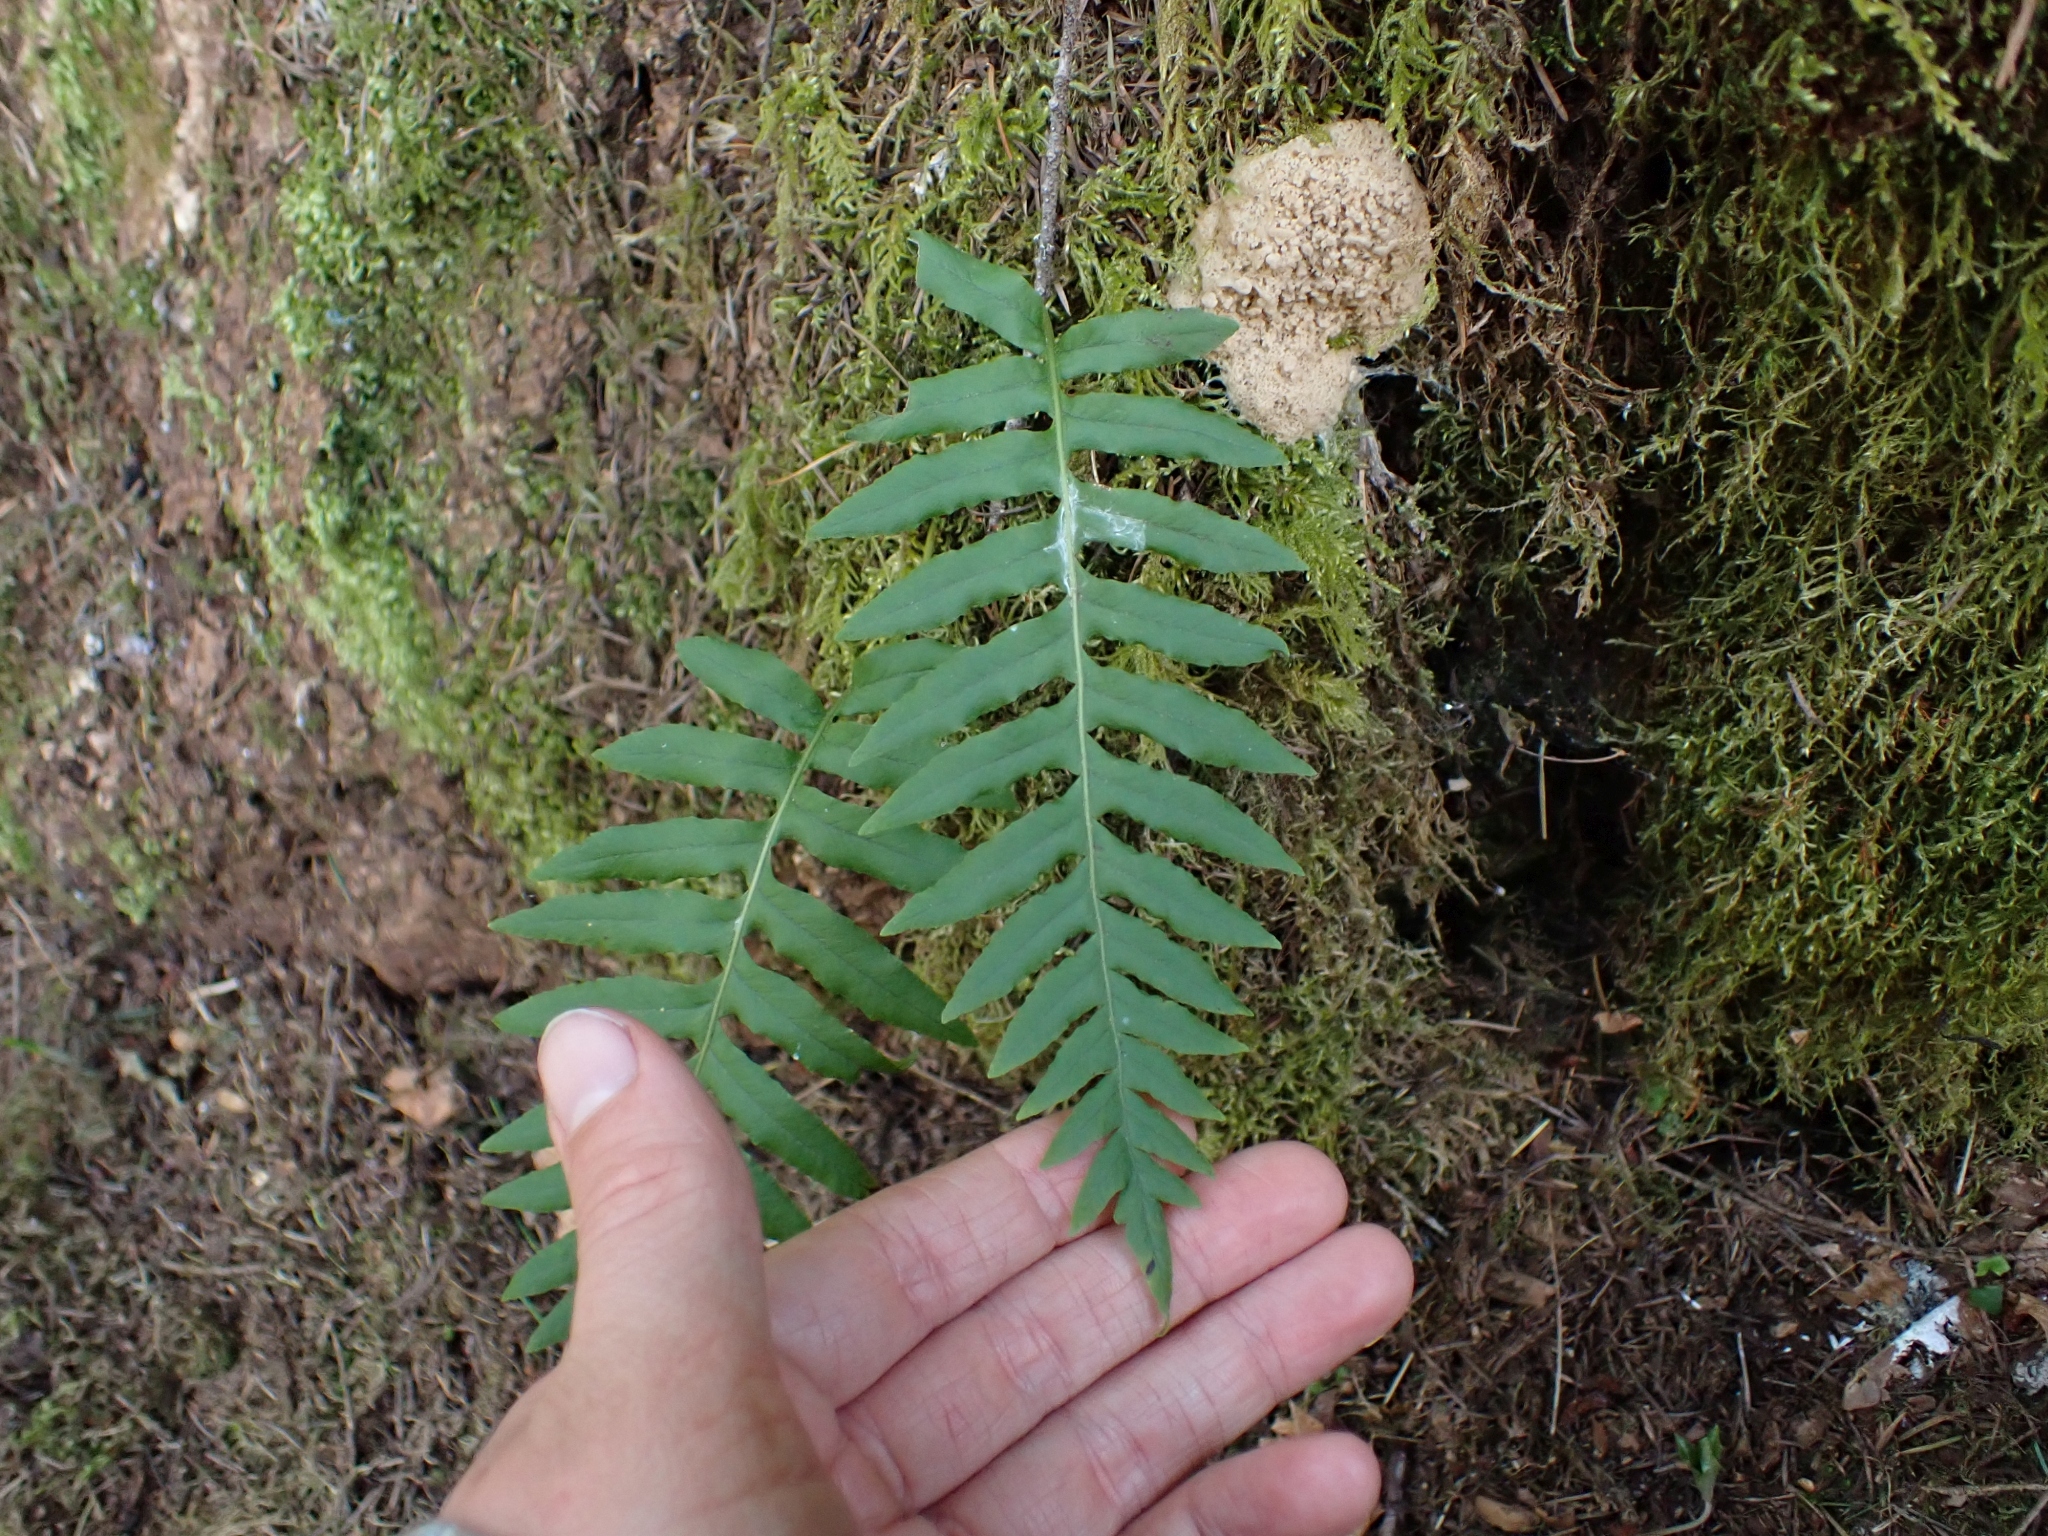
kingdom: Plantae
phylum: Tracheophyta
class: Polypodiopsida
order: Polypodiales
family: Polypodiaceae
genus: Polypodium
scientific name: Polypodium glycyrrhiza
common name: Licorice fern
